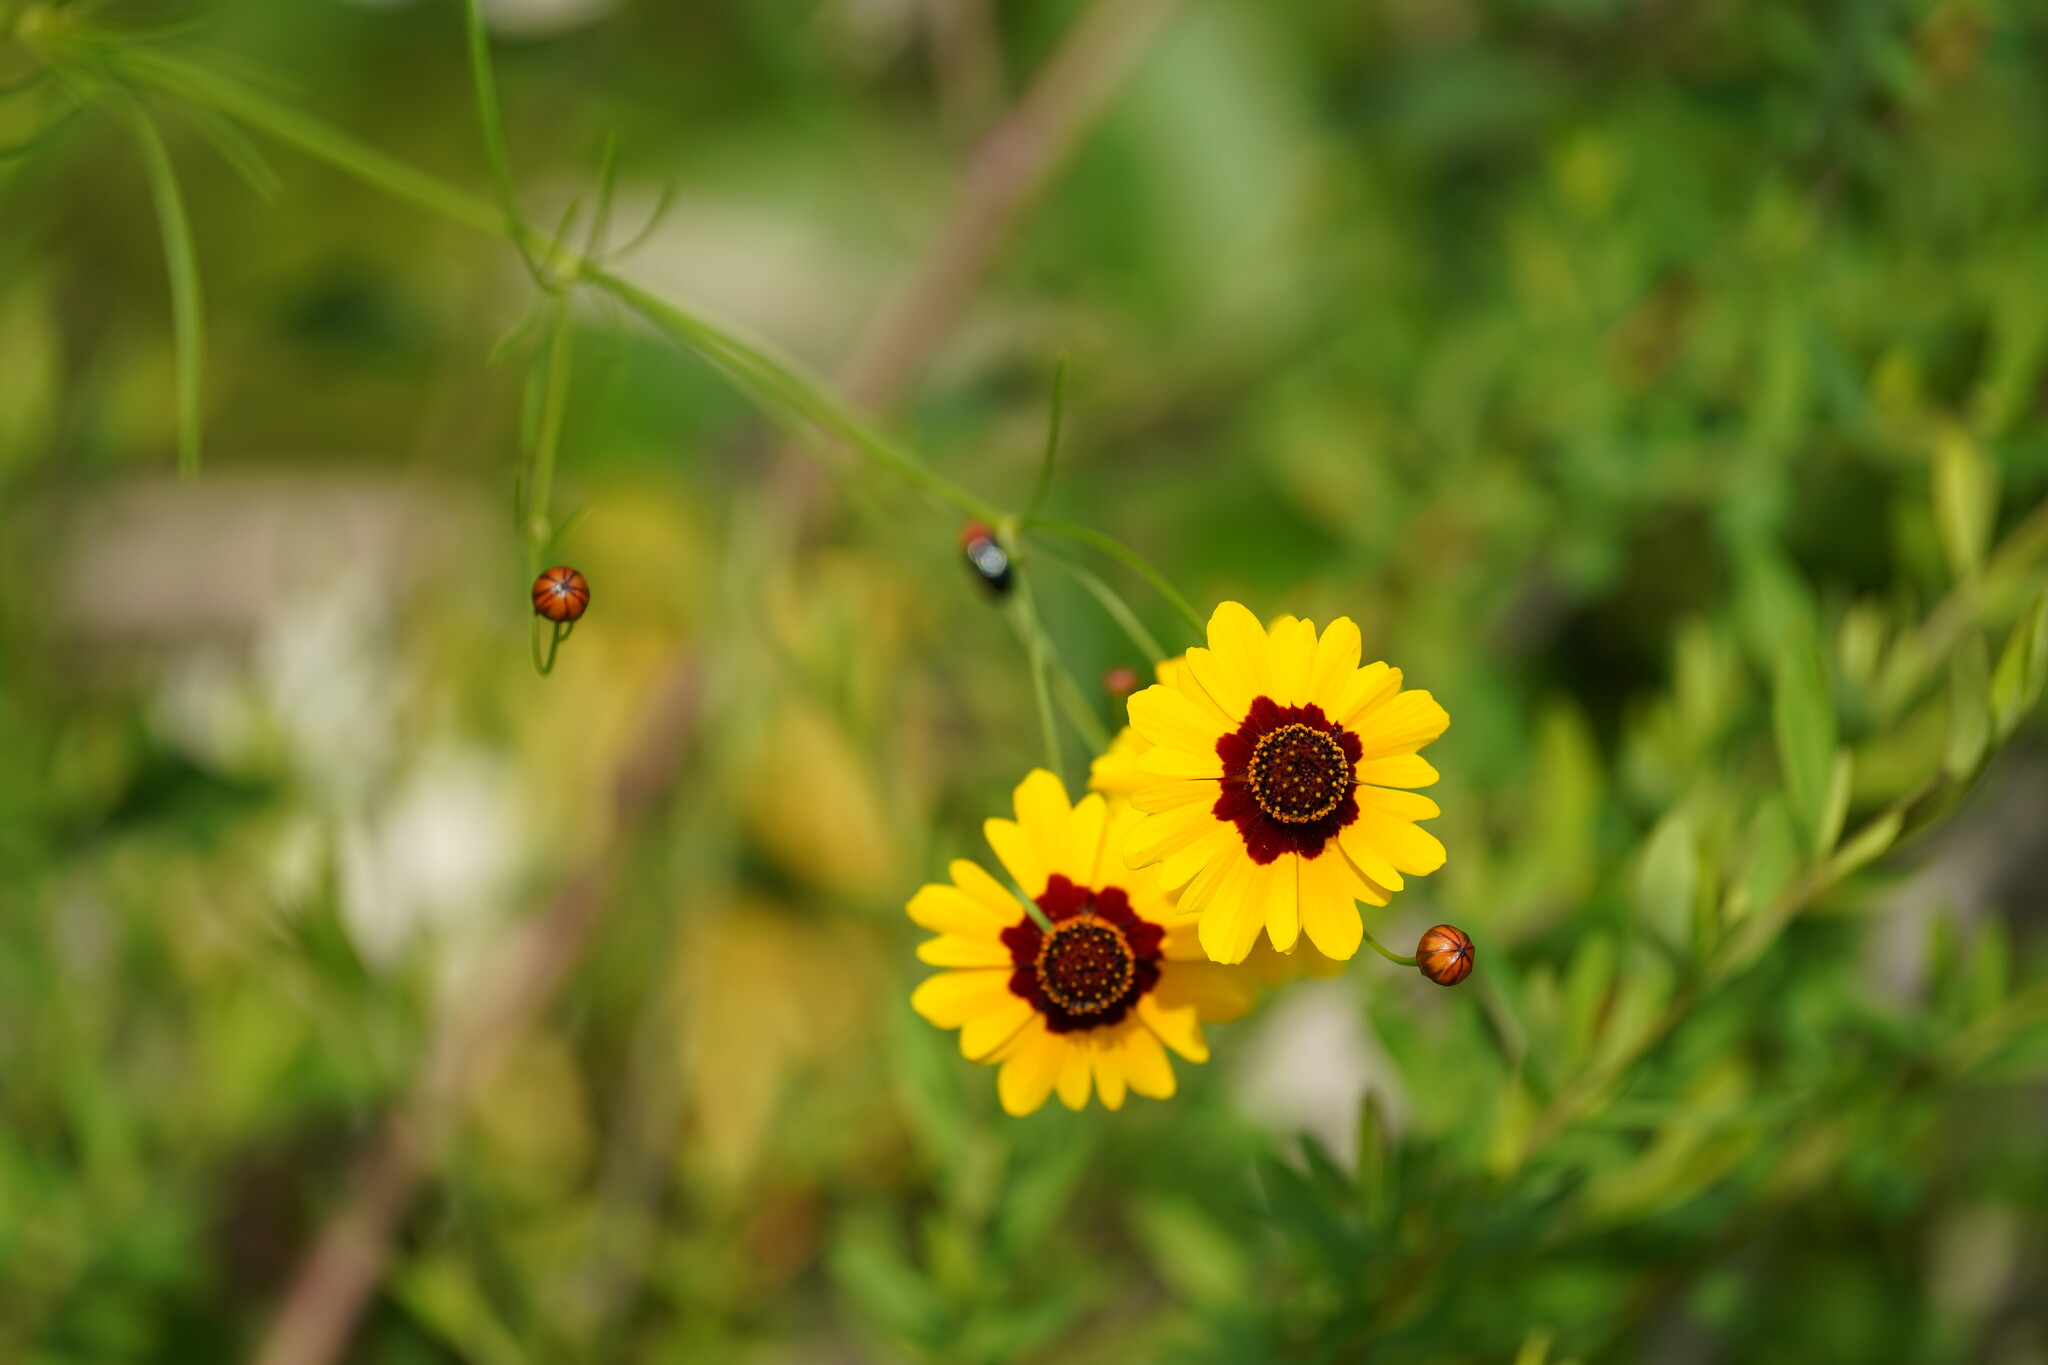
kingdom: Plantae
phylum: Tracheophyta
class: Magnoliopsida
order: Asterales
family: Asteraceae
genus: Coreopsis
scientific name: Coreopsis tinctoria
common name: Garden tickseed
